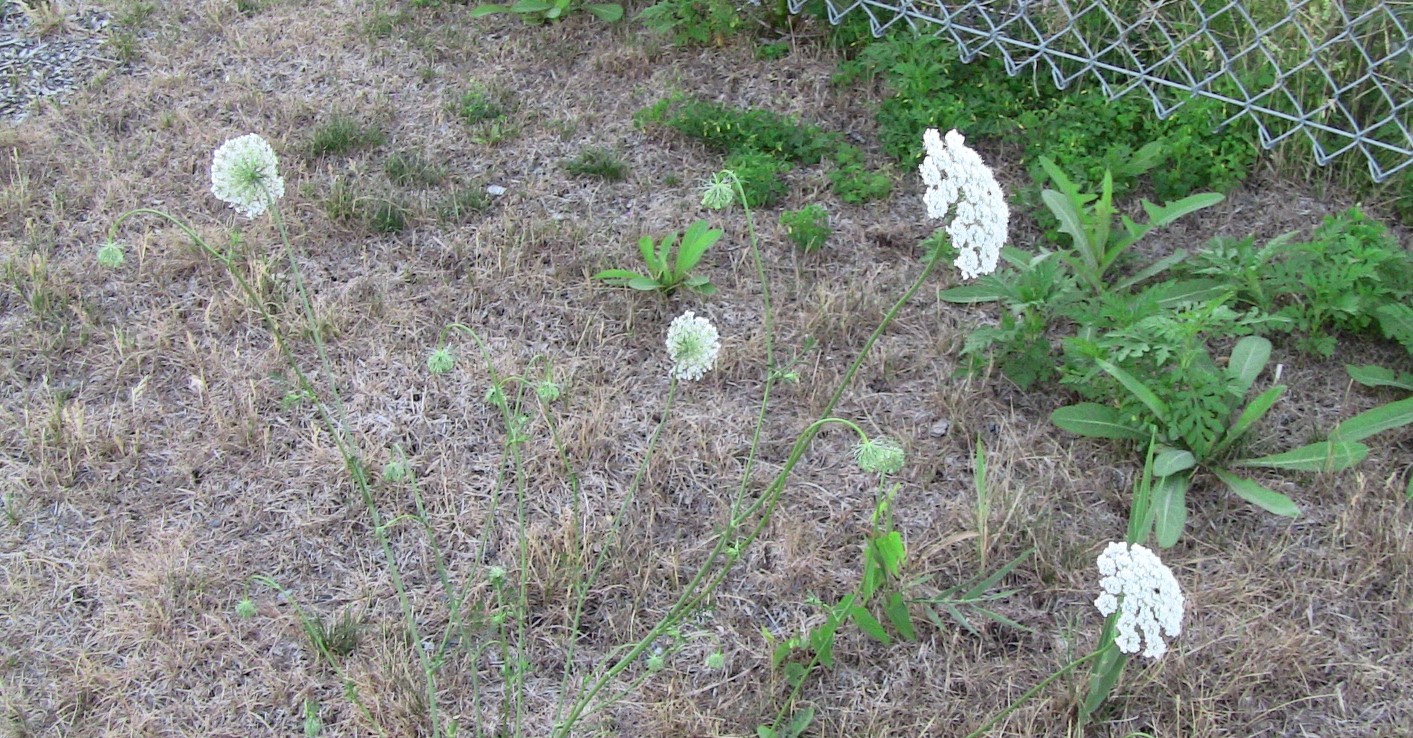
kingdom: Plantae
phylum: Tracheophyta
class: Magnoliopsida
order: Apiales
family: Apiaceae
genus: Daucus
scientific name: Daucus carota
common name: Wild carrot
